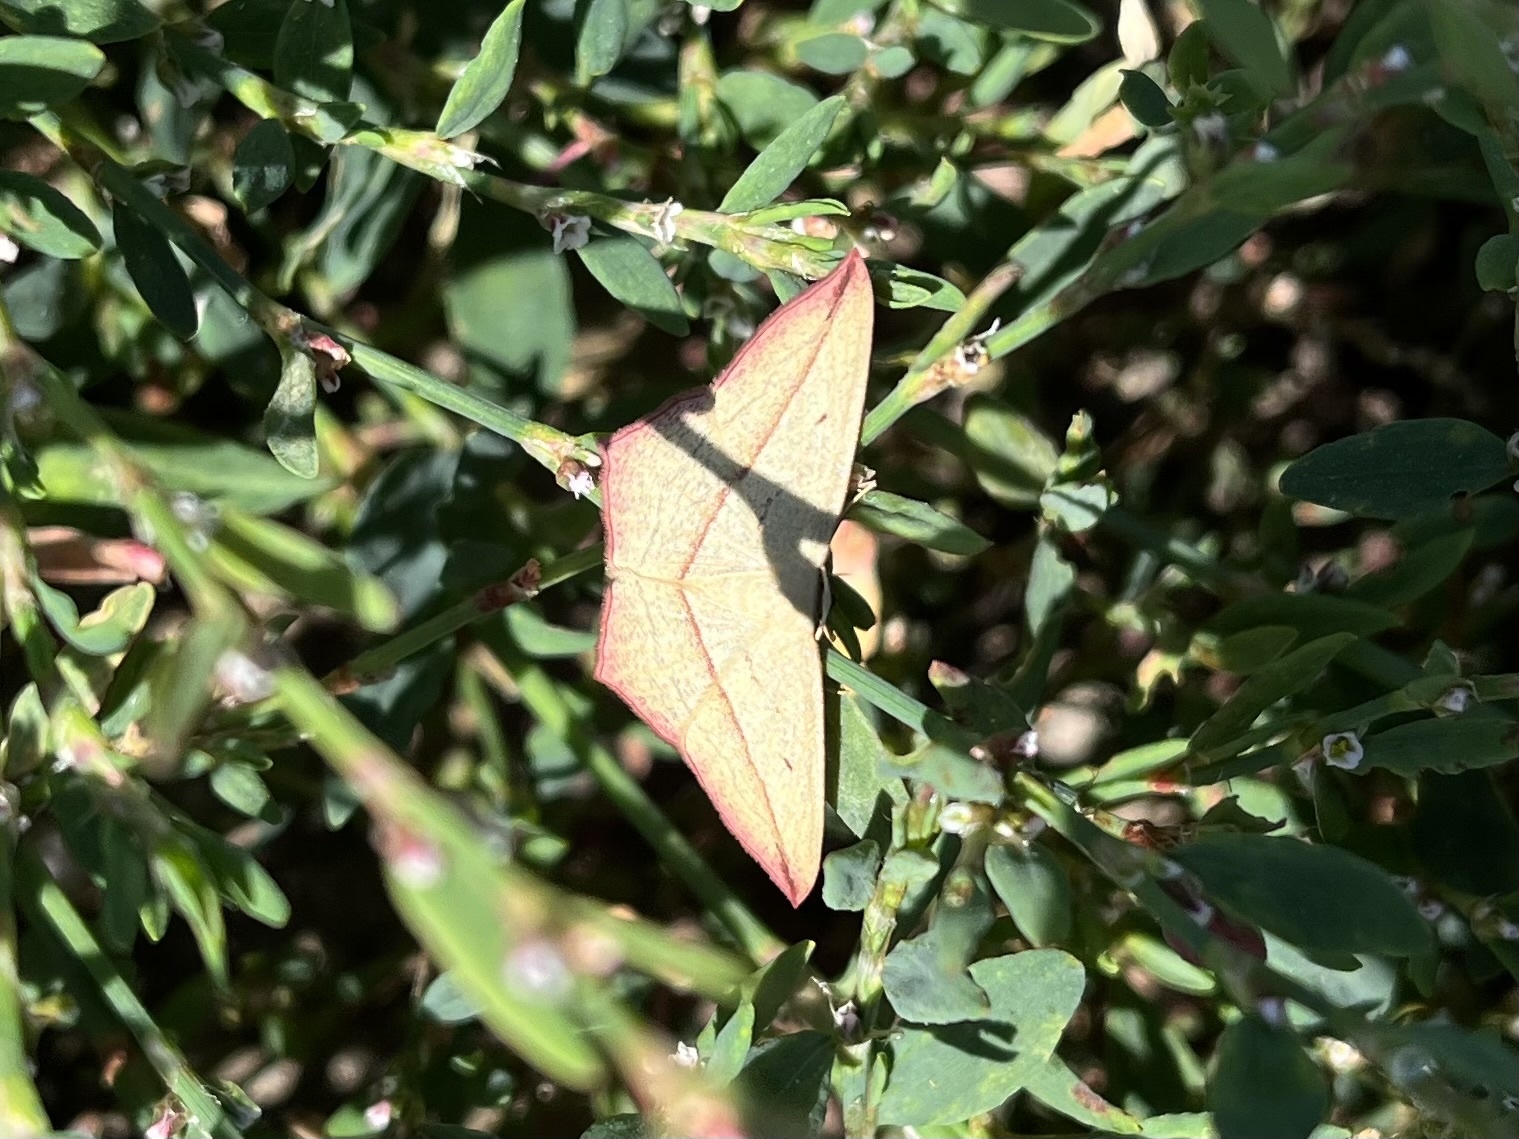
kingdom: Animalia
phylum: Arthropoda
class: Insecta
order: Lepidoptera
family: Geometridae
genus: Timandra
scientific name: Timandra comae
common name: Blood-vein
